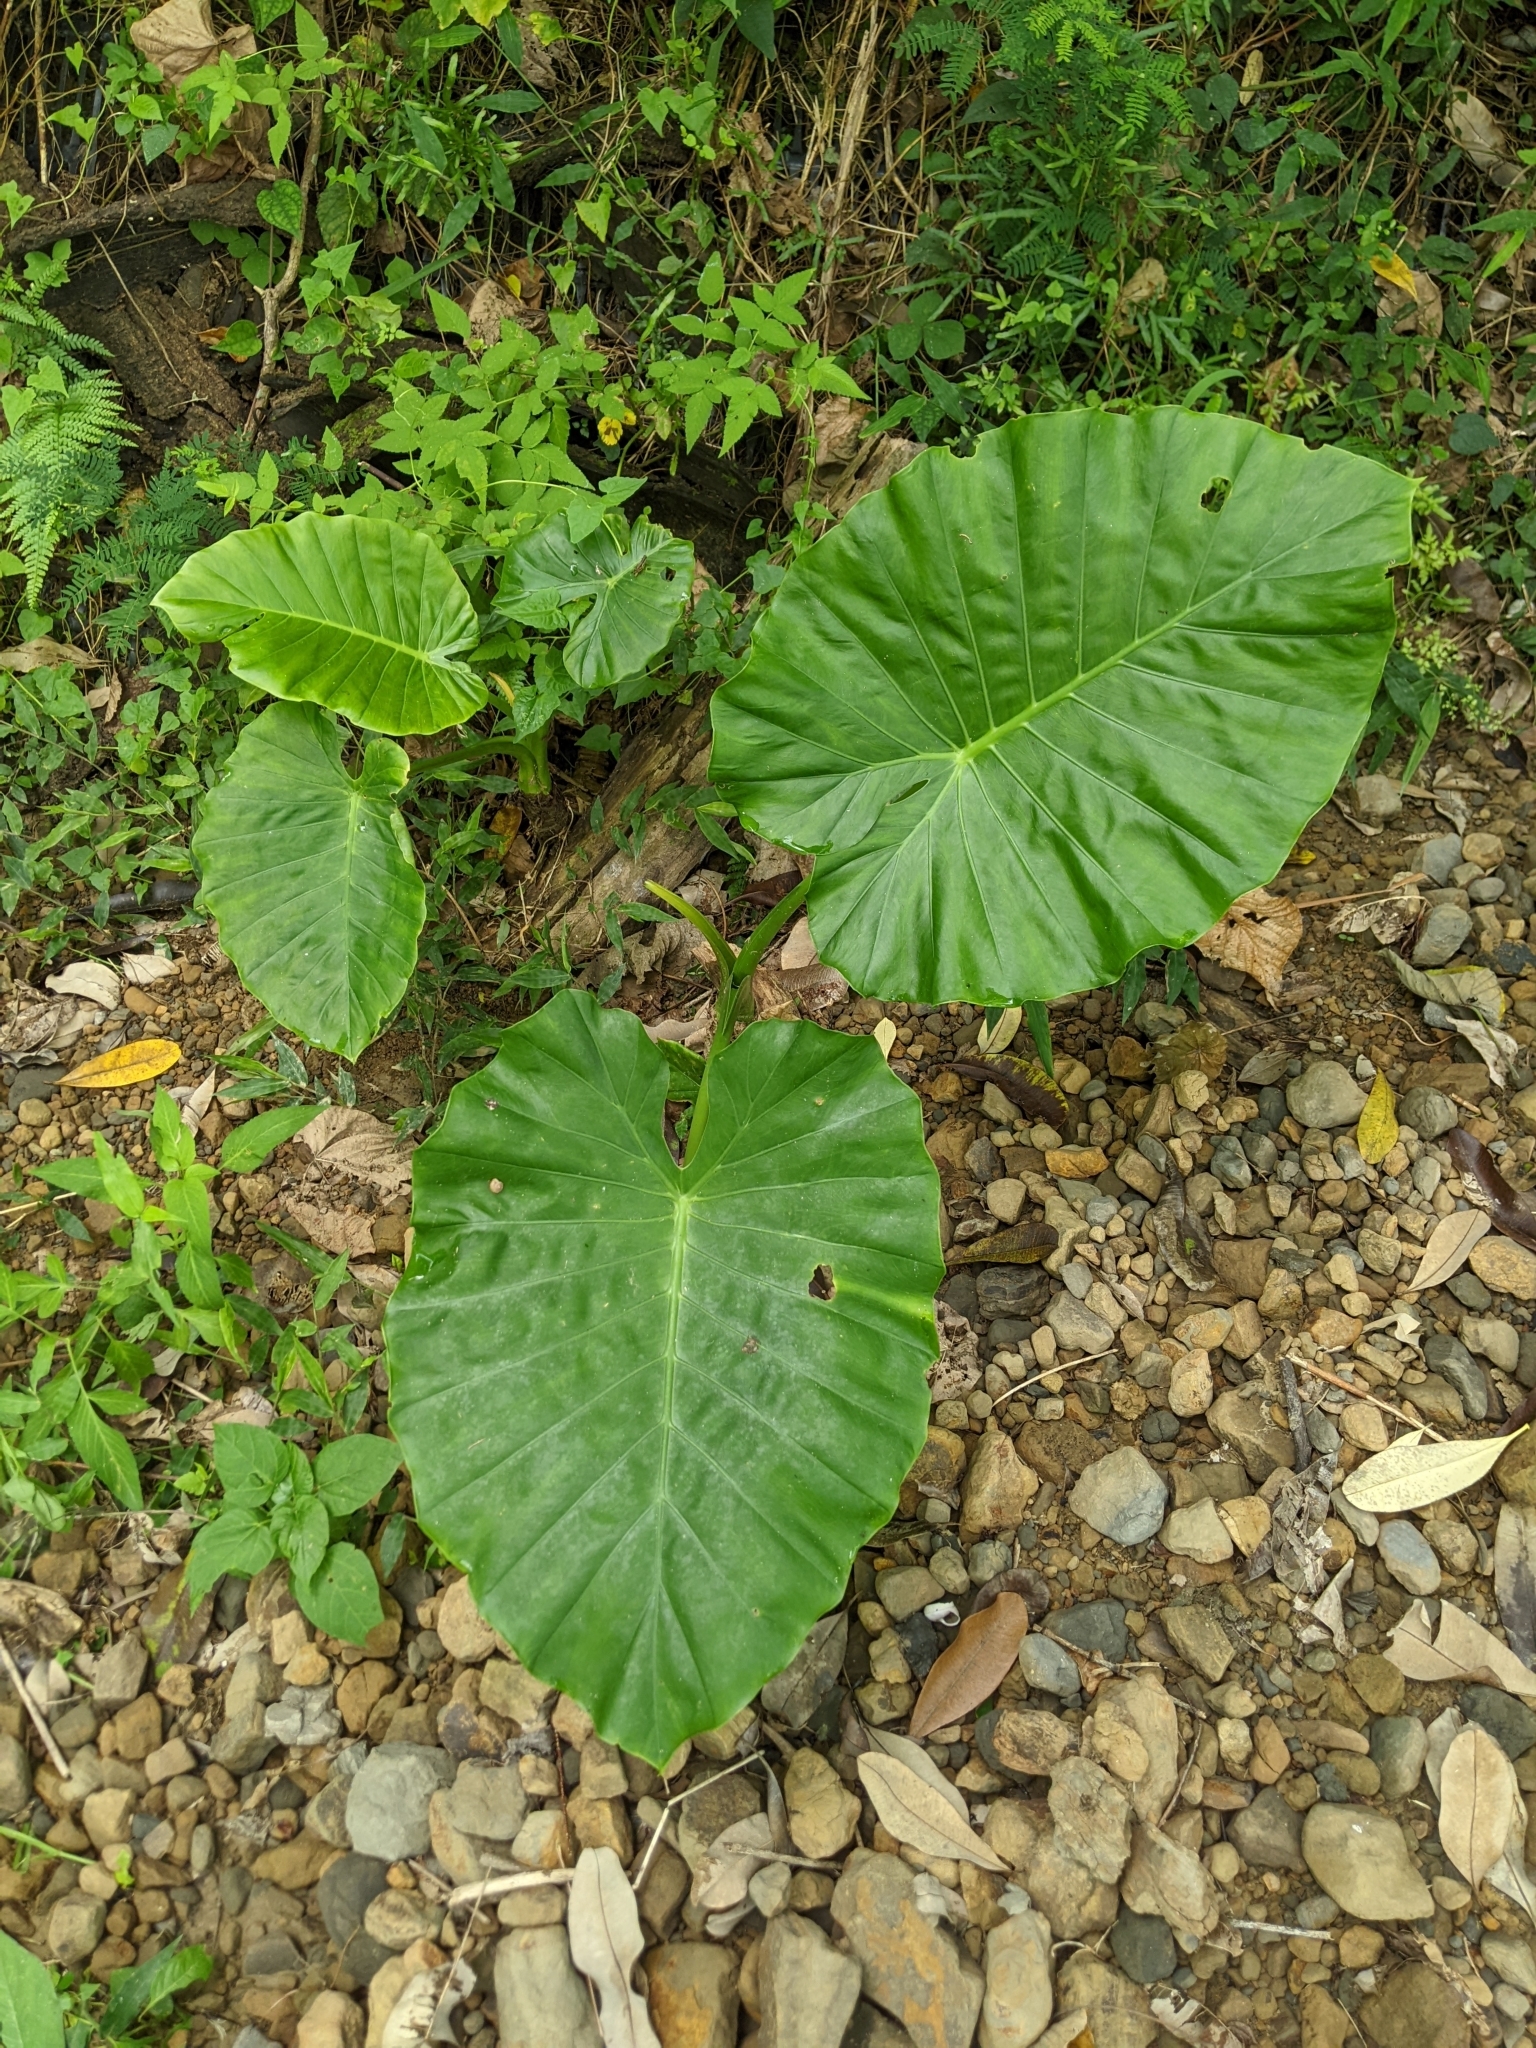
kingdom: Plantae
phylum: Tracheophyta
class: Liliopsida
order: Alismatales
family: Araceae
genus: Alocasia
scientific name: Alocasia odora
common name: Asian taro
